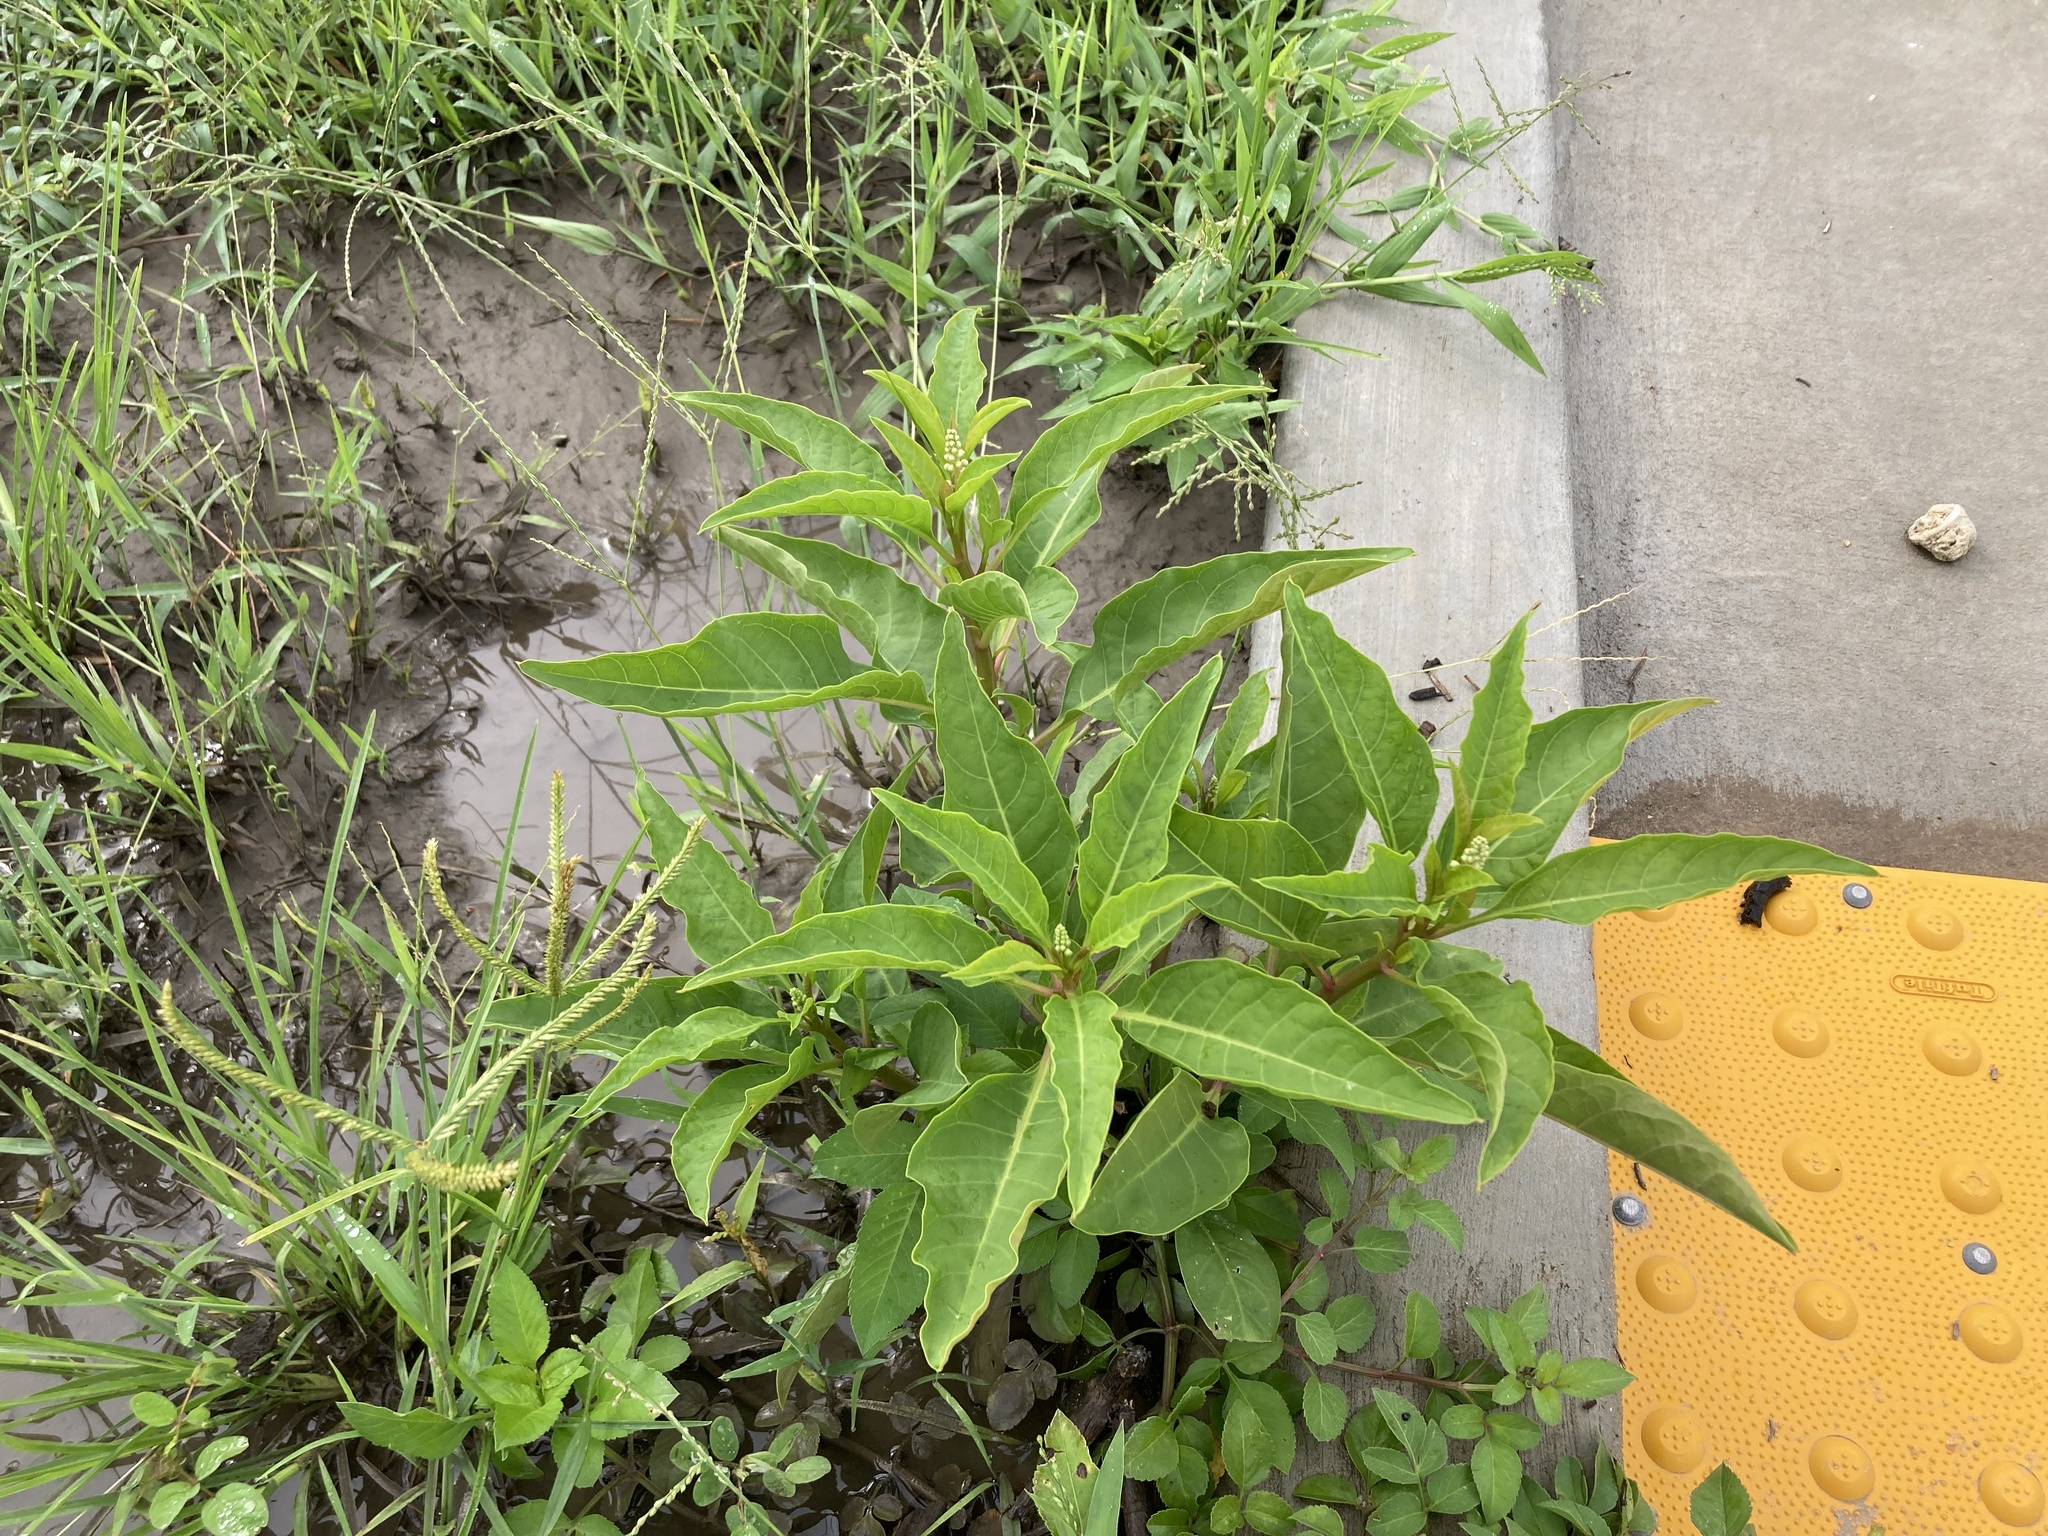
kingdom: Plantae
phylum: Tracheophyta
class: Magnoliopsida
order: Caryophyllales
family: Phytolaccaceae
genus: Phytolacca
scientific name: Phytolacca americana
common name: American pokeweed
